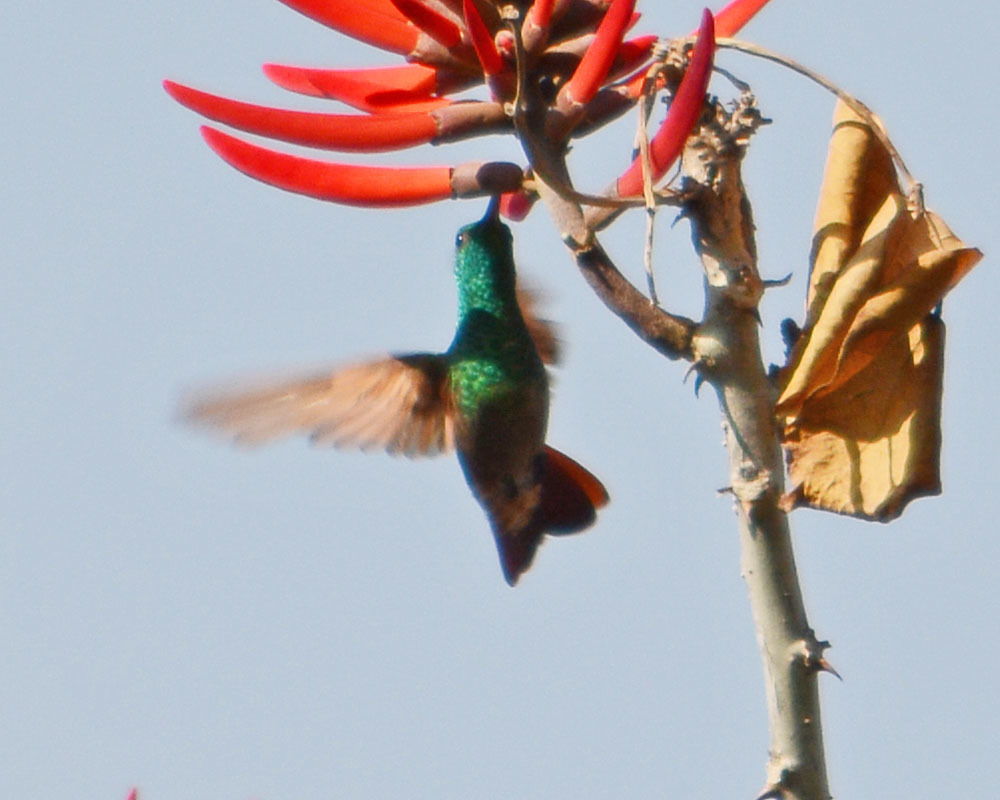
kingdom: Animalia
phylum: Chordata
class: Aves
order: Apodiformes
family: Trochilidae
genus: Saucerottia
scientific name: Saucerottia beryllina
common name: Berylline hummingbird
